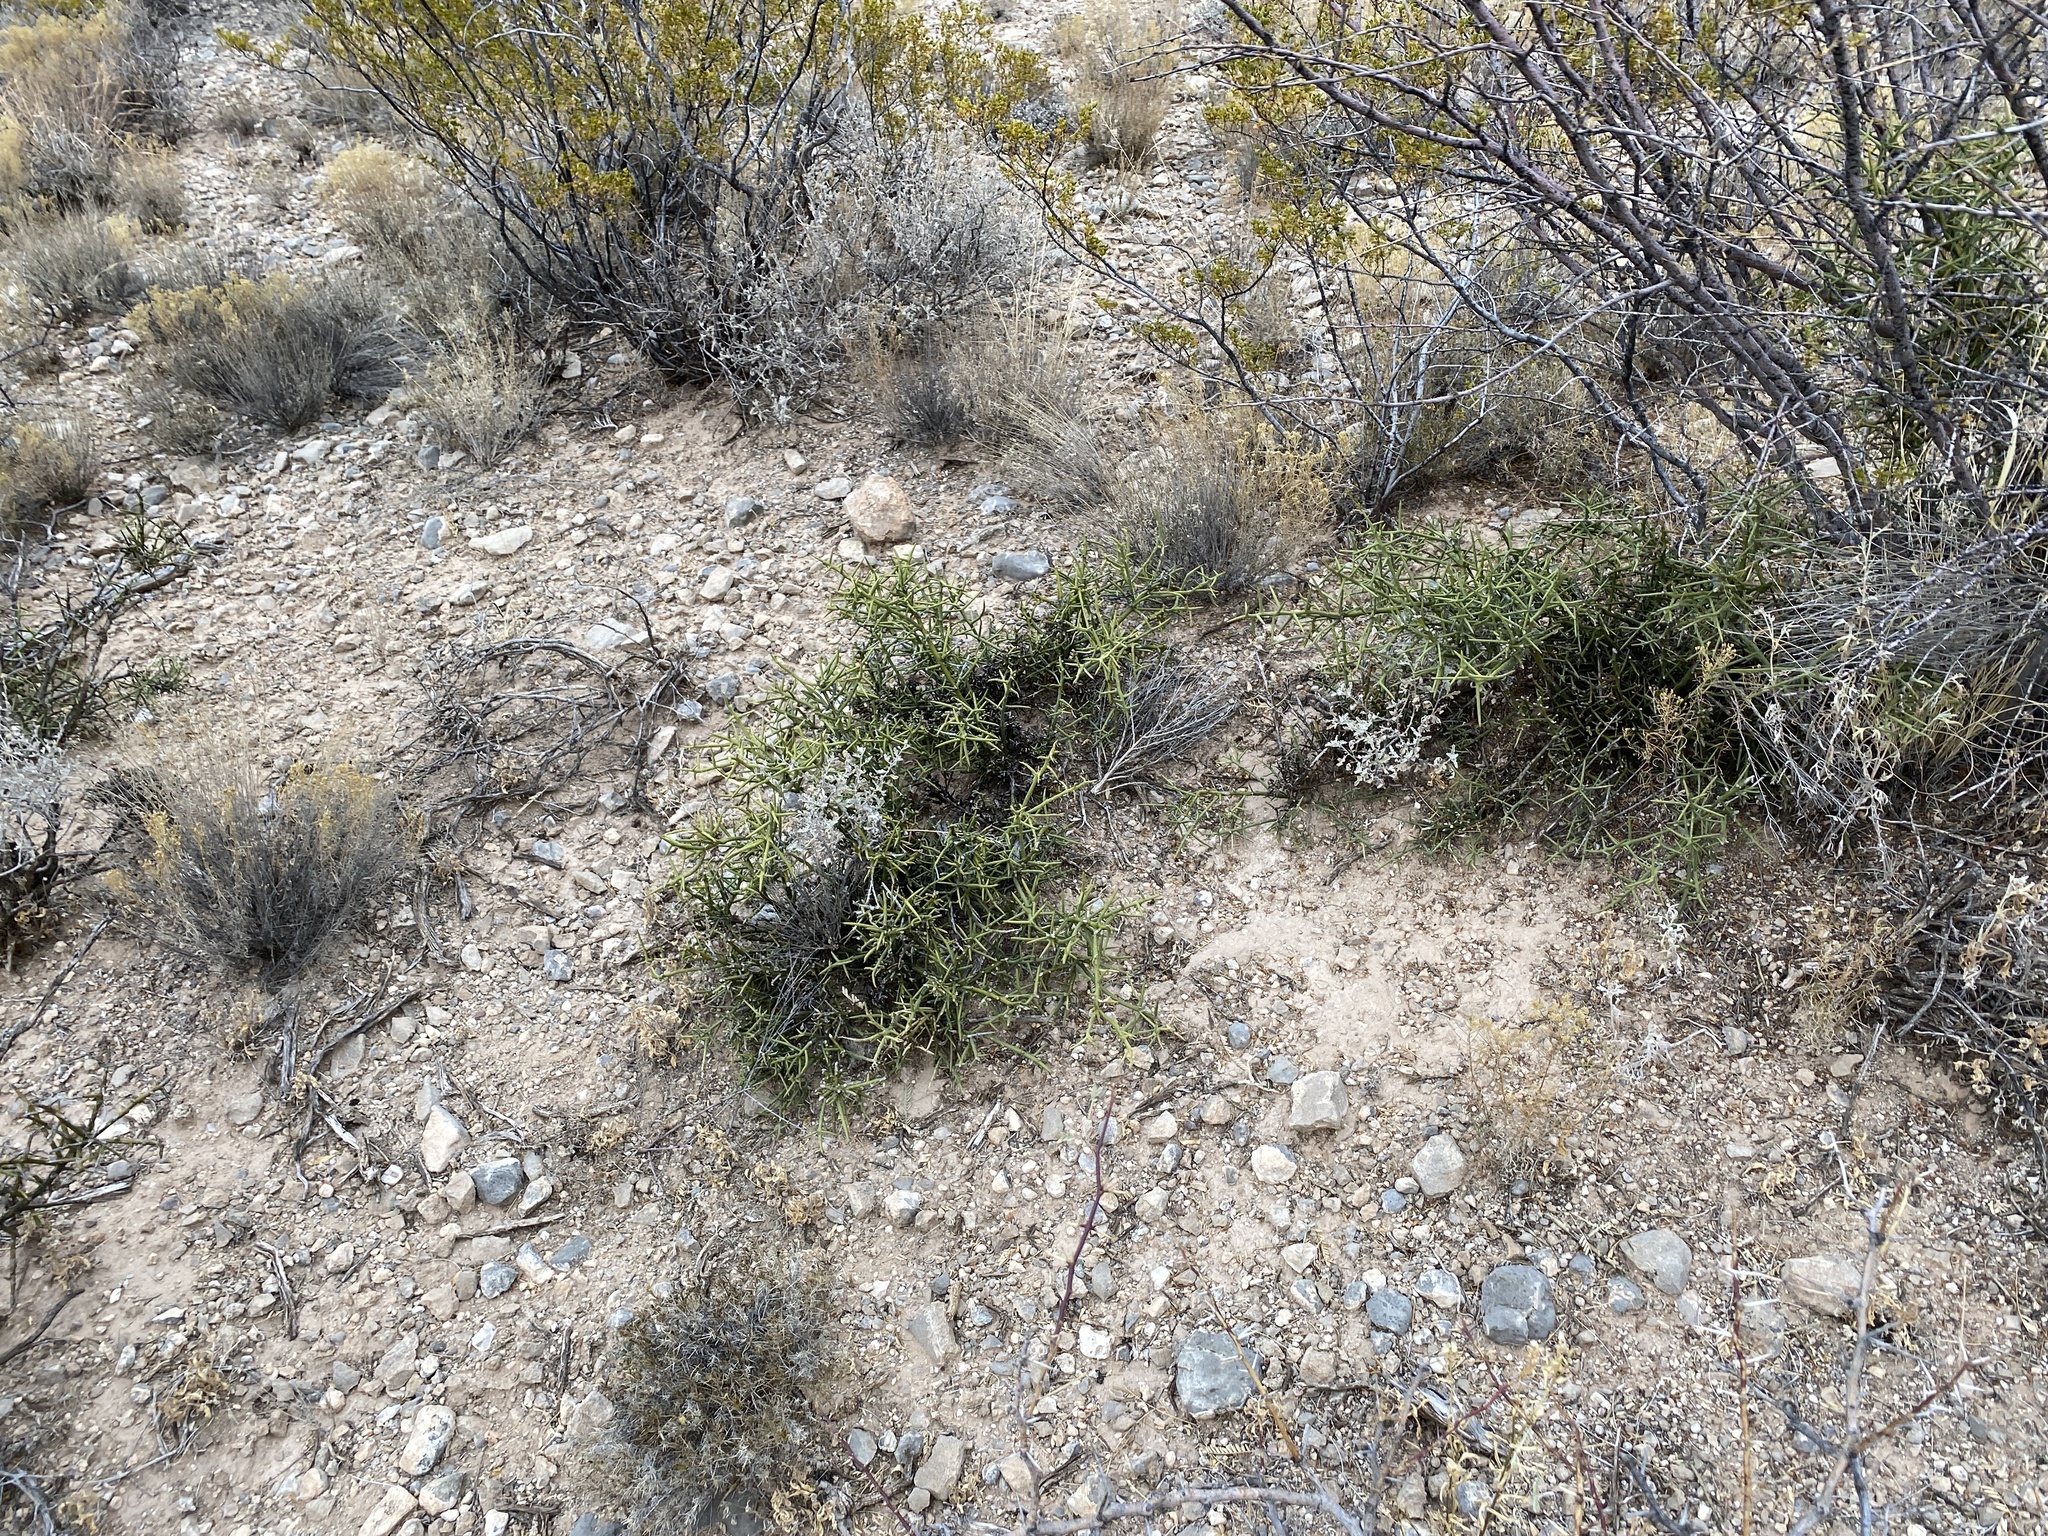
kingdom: Plantae
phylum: Tracheophyta
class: Magnoliopsida
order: Brassicales
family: Koeberliniaceae
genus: Koeberlinia
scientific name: Koeberlinia spinosa
